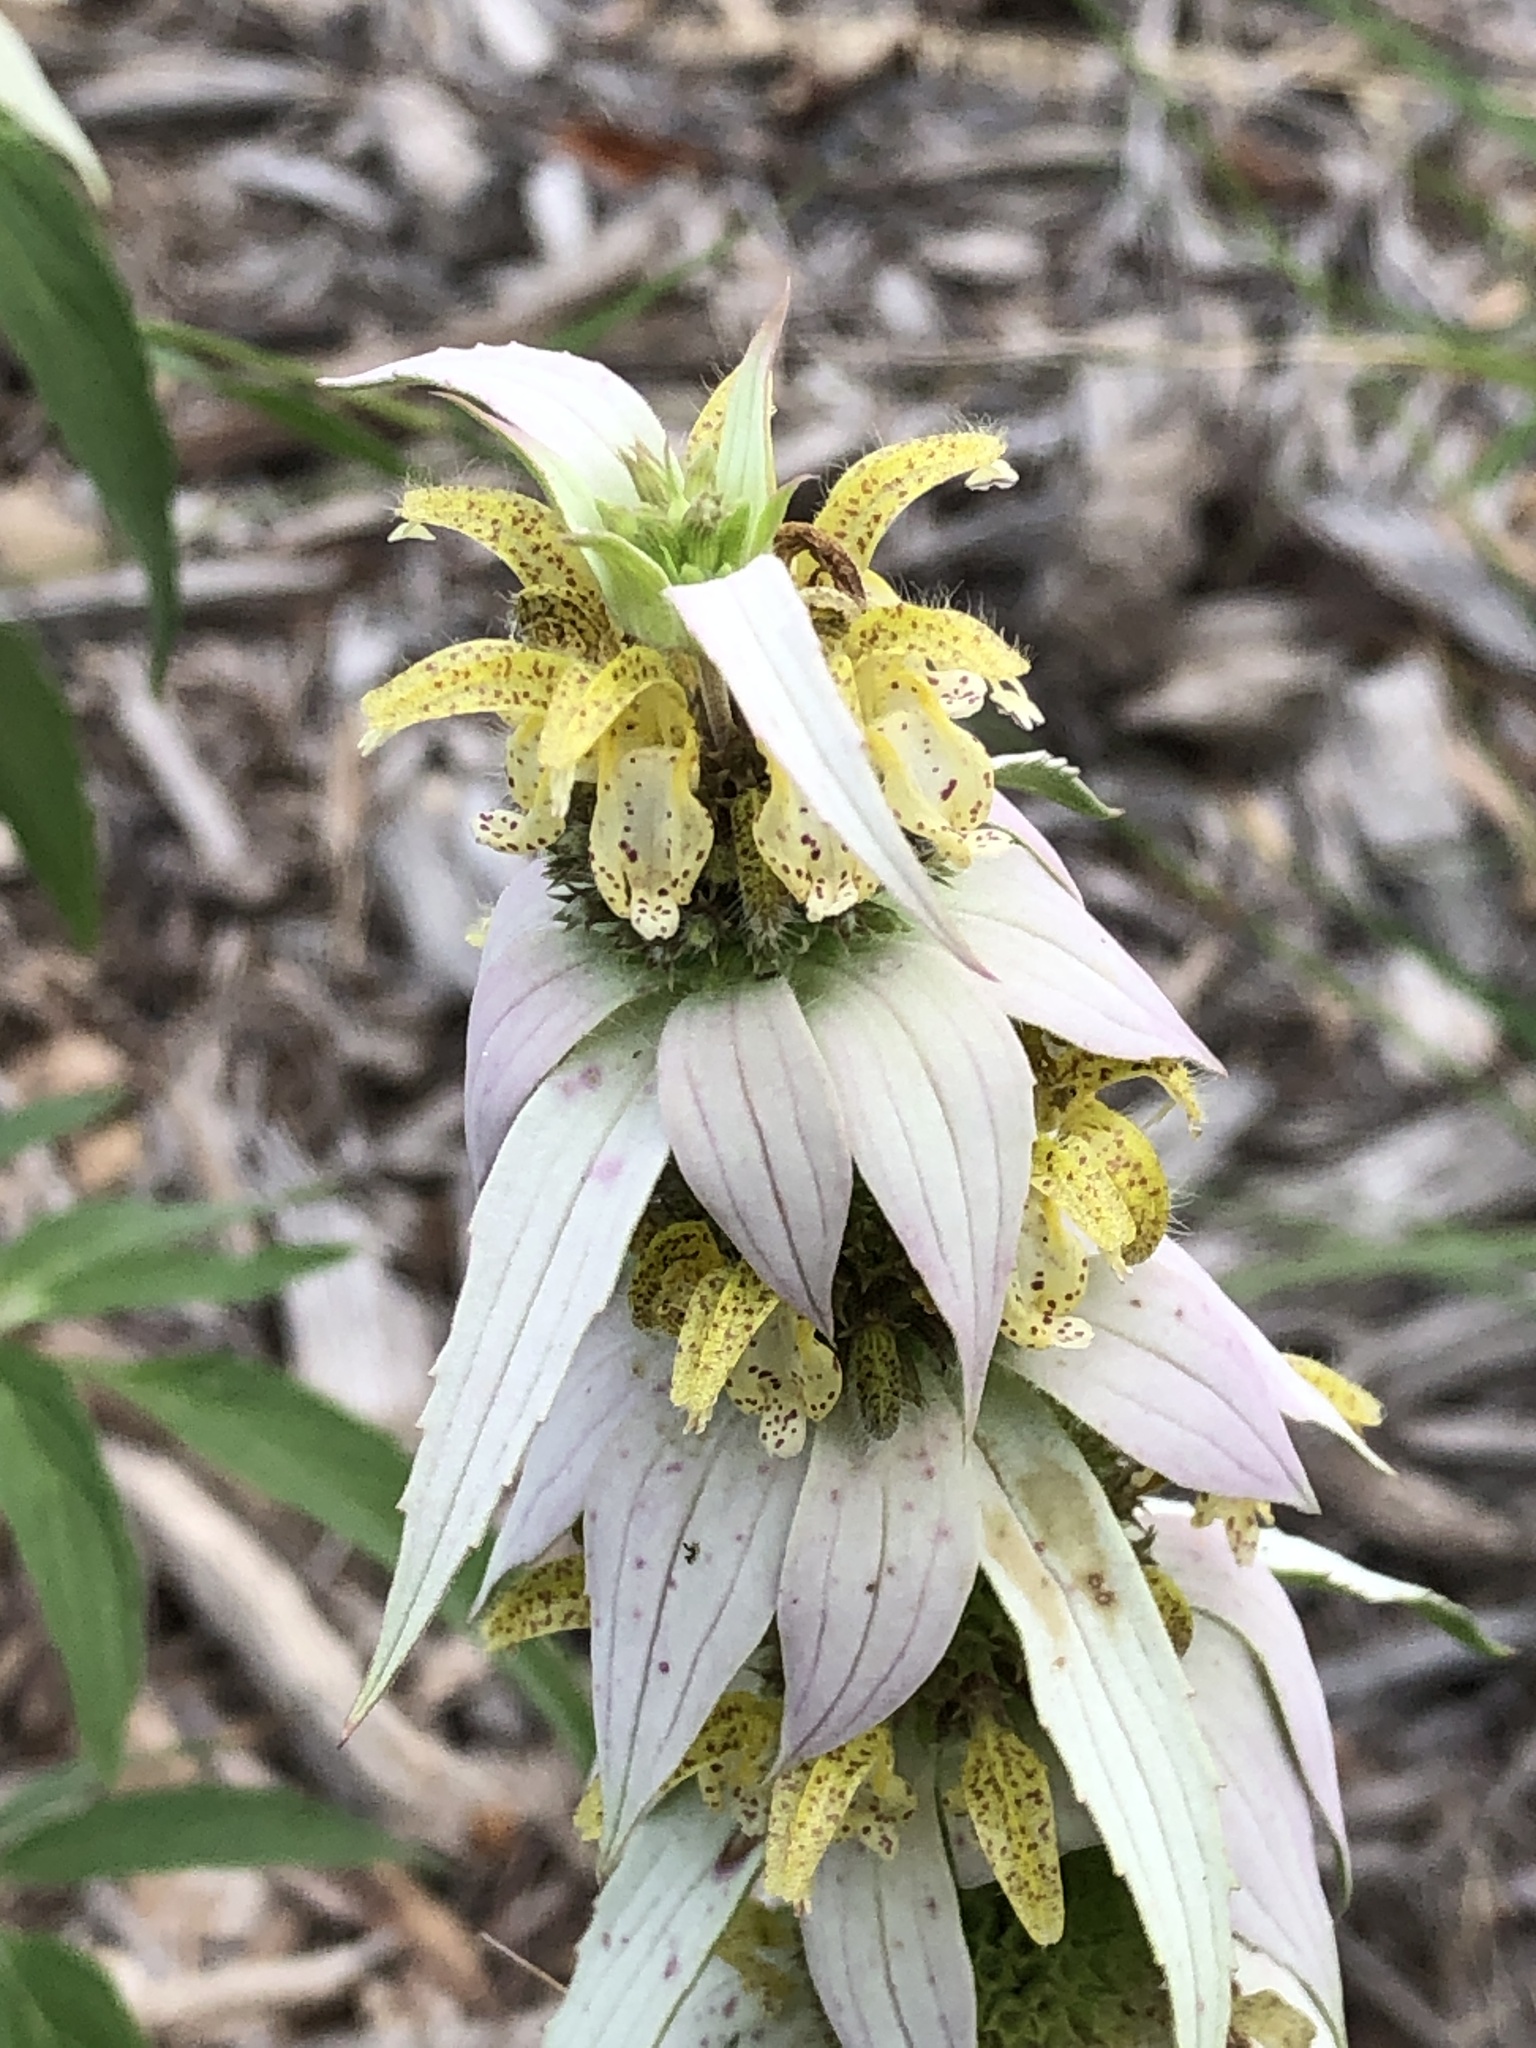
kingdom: Plantae
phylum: Tracheophyta
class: Magnoliopsida
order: Lamiales
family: Lamiaceae
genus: Monarda
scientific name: Monarda punctata
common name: Dotted monarda
